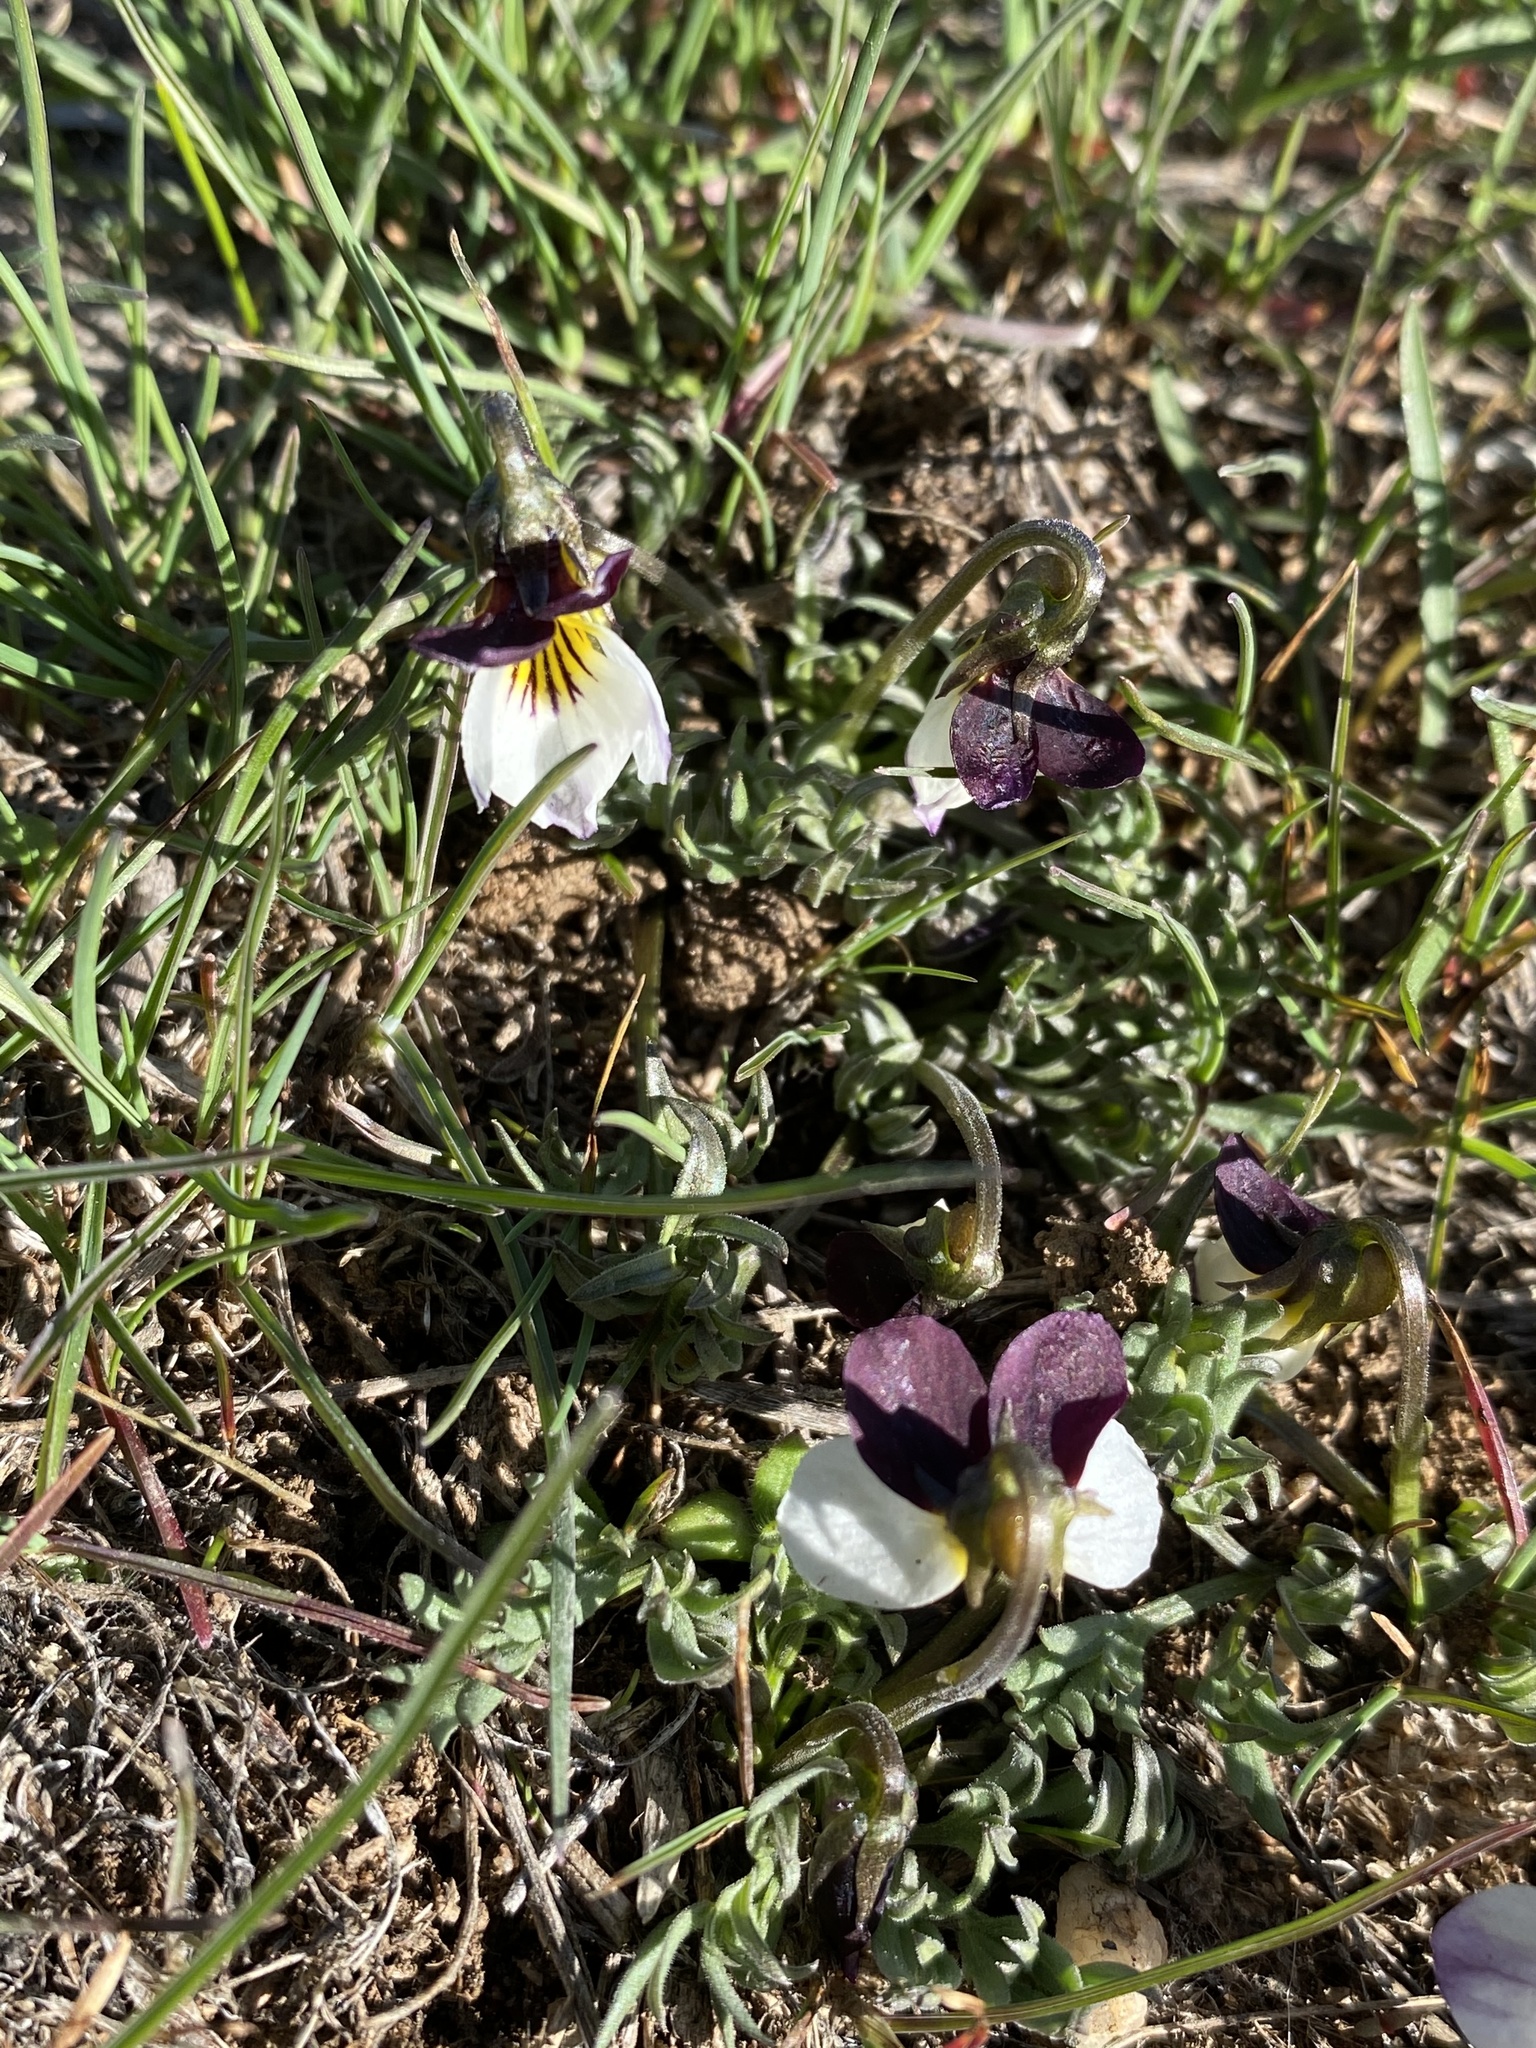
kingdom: Plantae
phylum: Tracheophyta
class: Magnoliopsida
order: Malpighiales
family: Violaceae
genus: Viola
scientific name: Viola beckwithii
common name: Beckwith's violet
